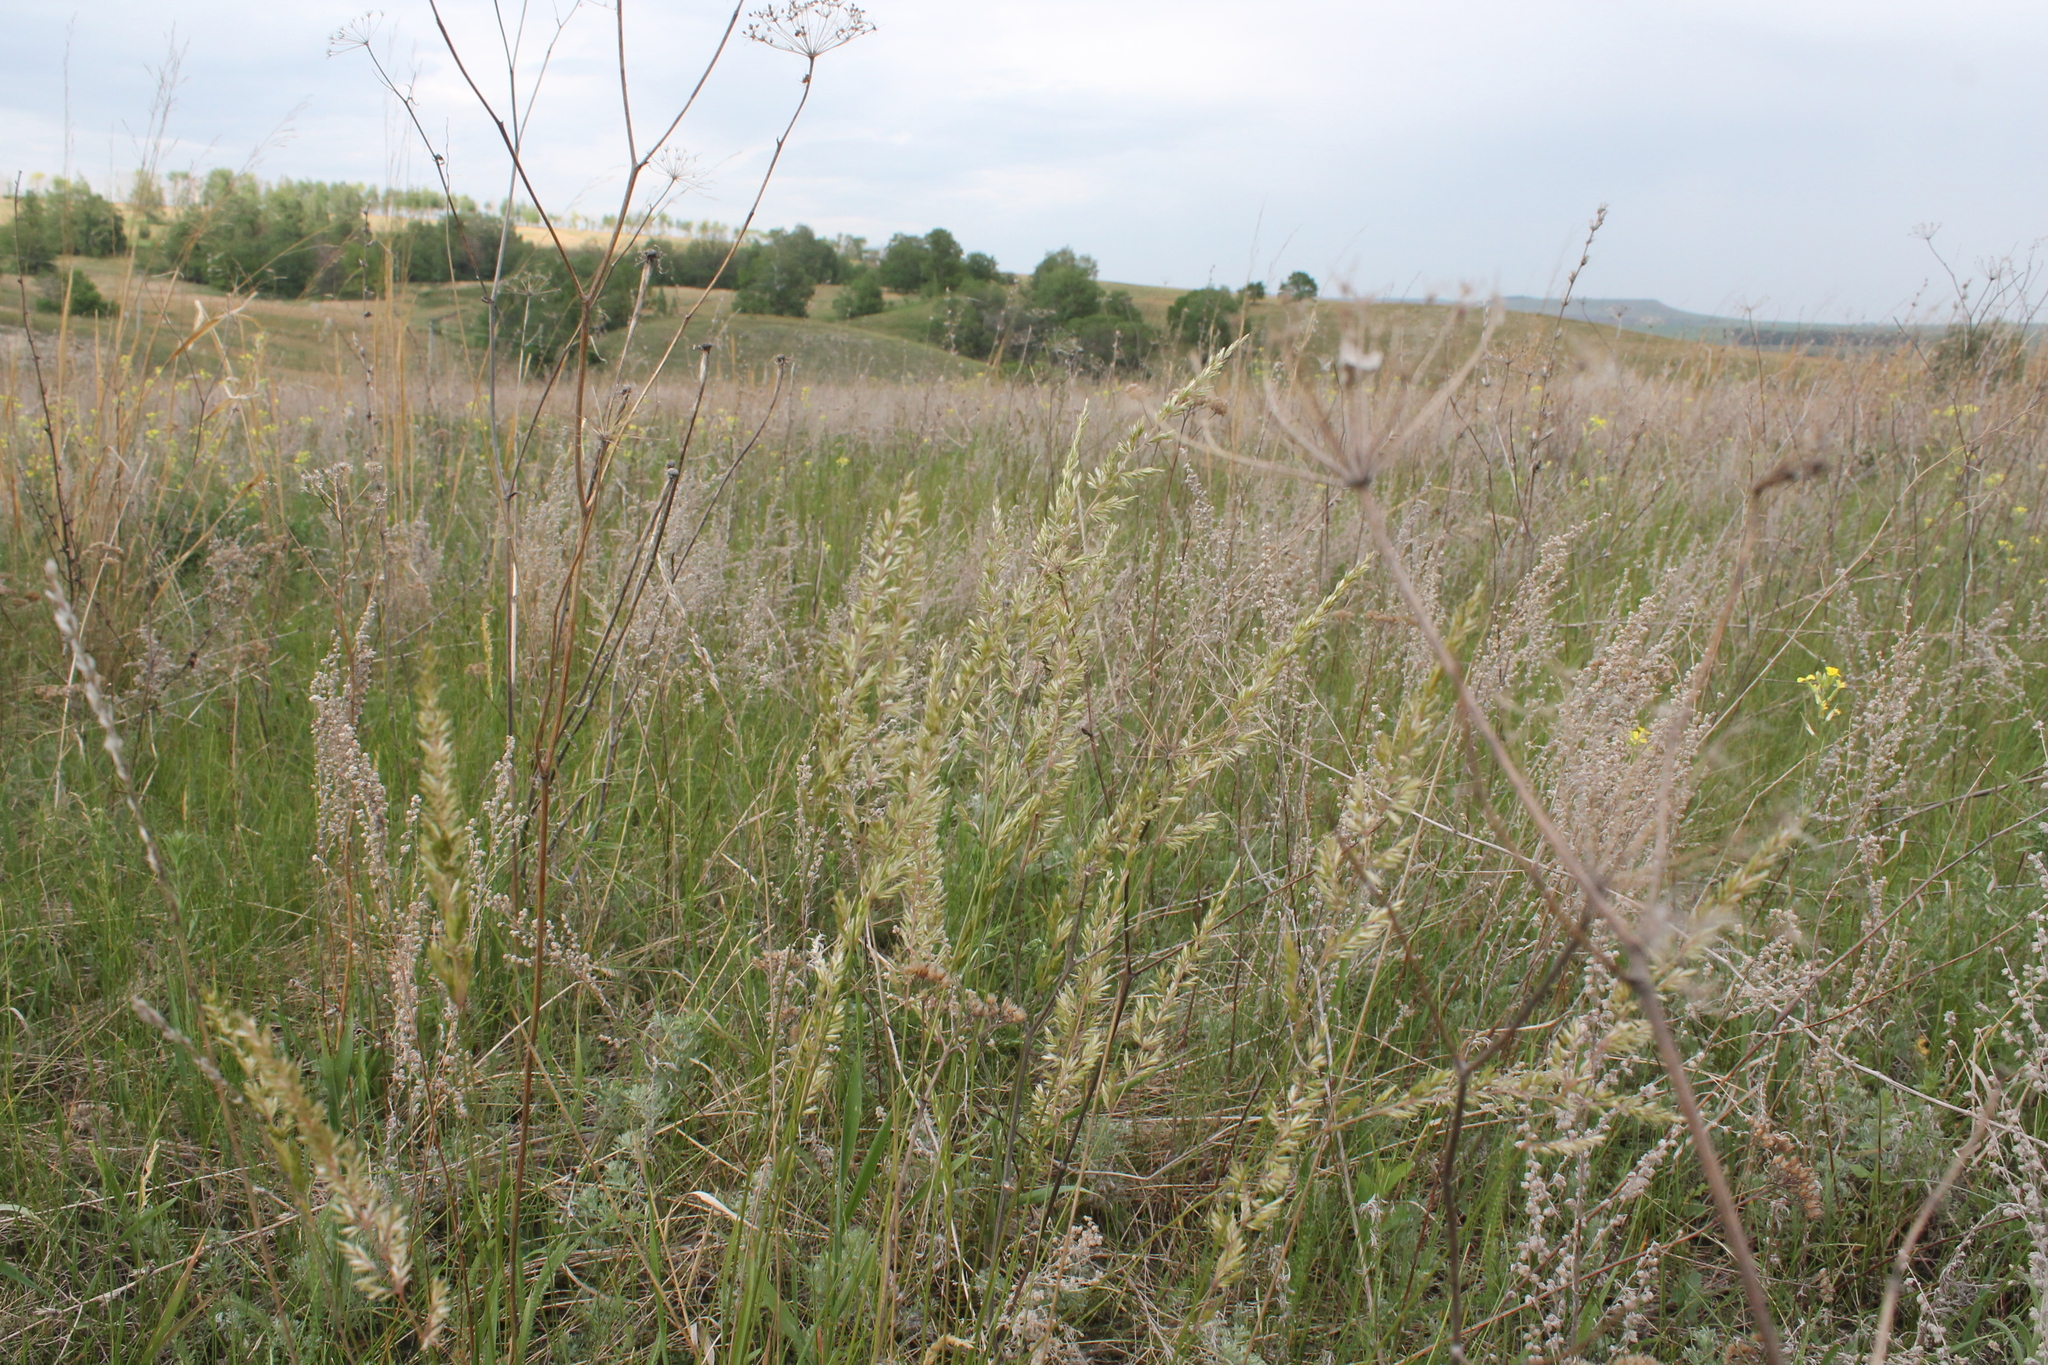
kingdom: Plantae
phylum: Tracheophyta
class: Liliopsida
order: Poales
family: Poaceae
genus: Koeleria
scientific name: Koeleria macrantha
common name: Crested hair-grass
